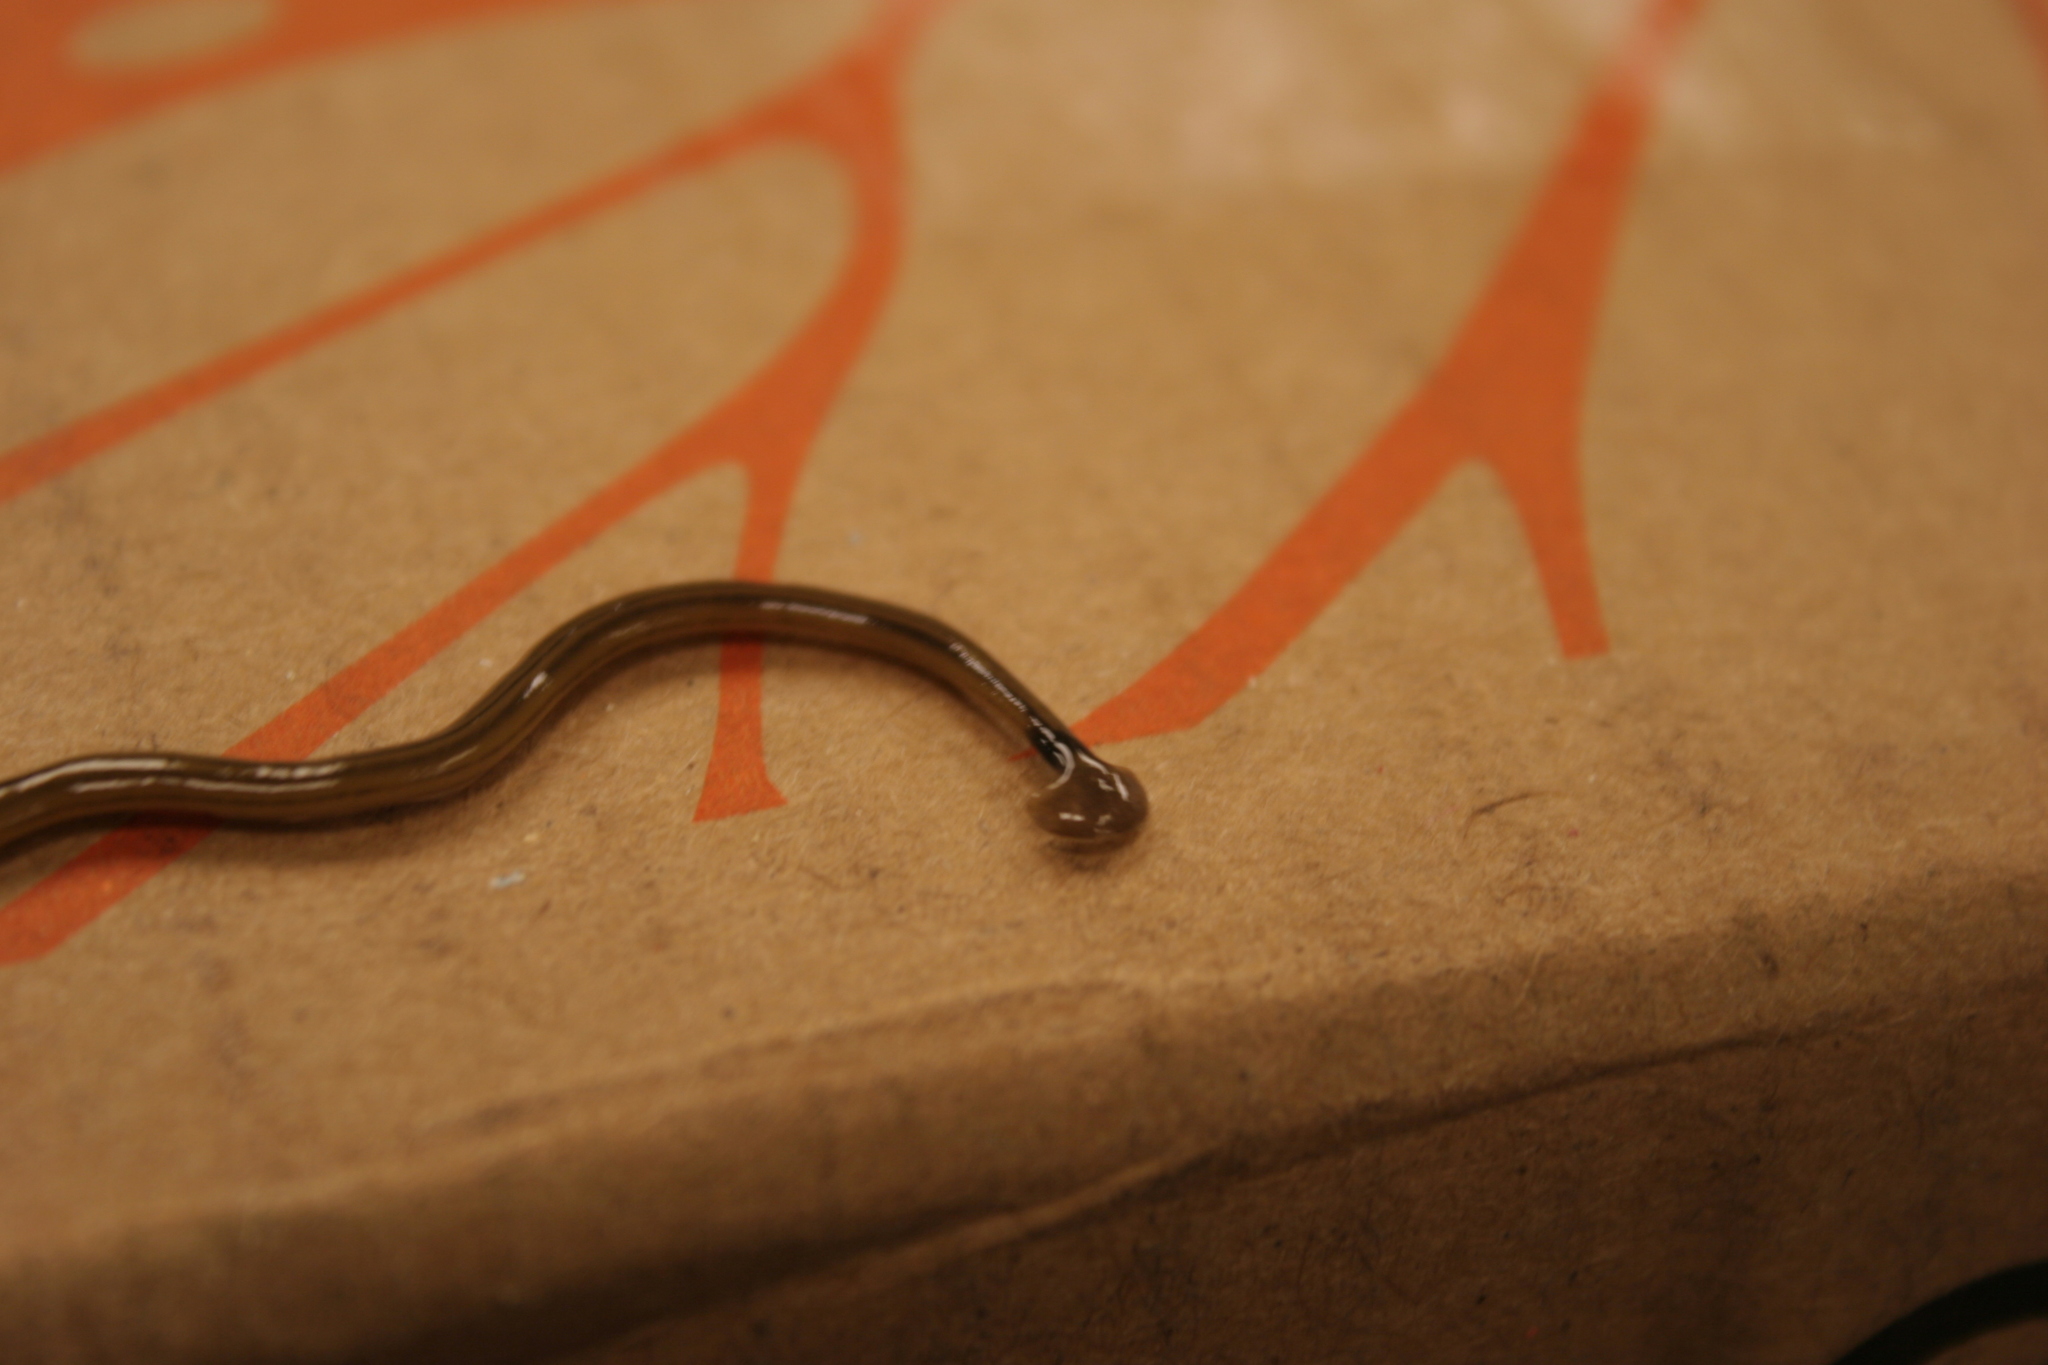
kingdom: Animalia
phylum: Platyhelminthes
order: Tricladida
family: Geoplanidae
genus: Bipalium
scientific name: Bipalium kewense
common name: Hammerhead flatworm
